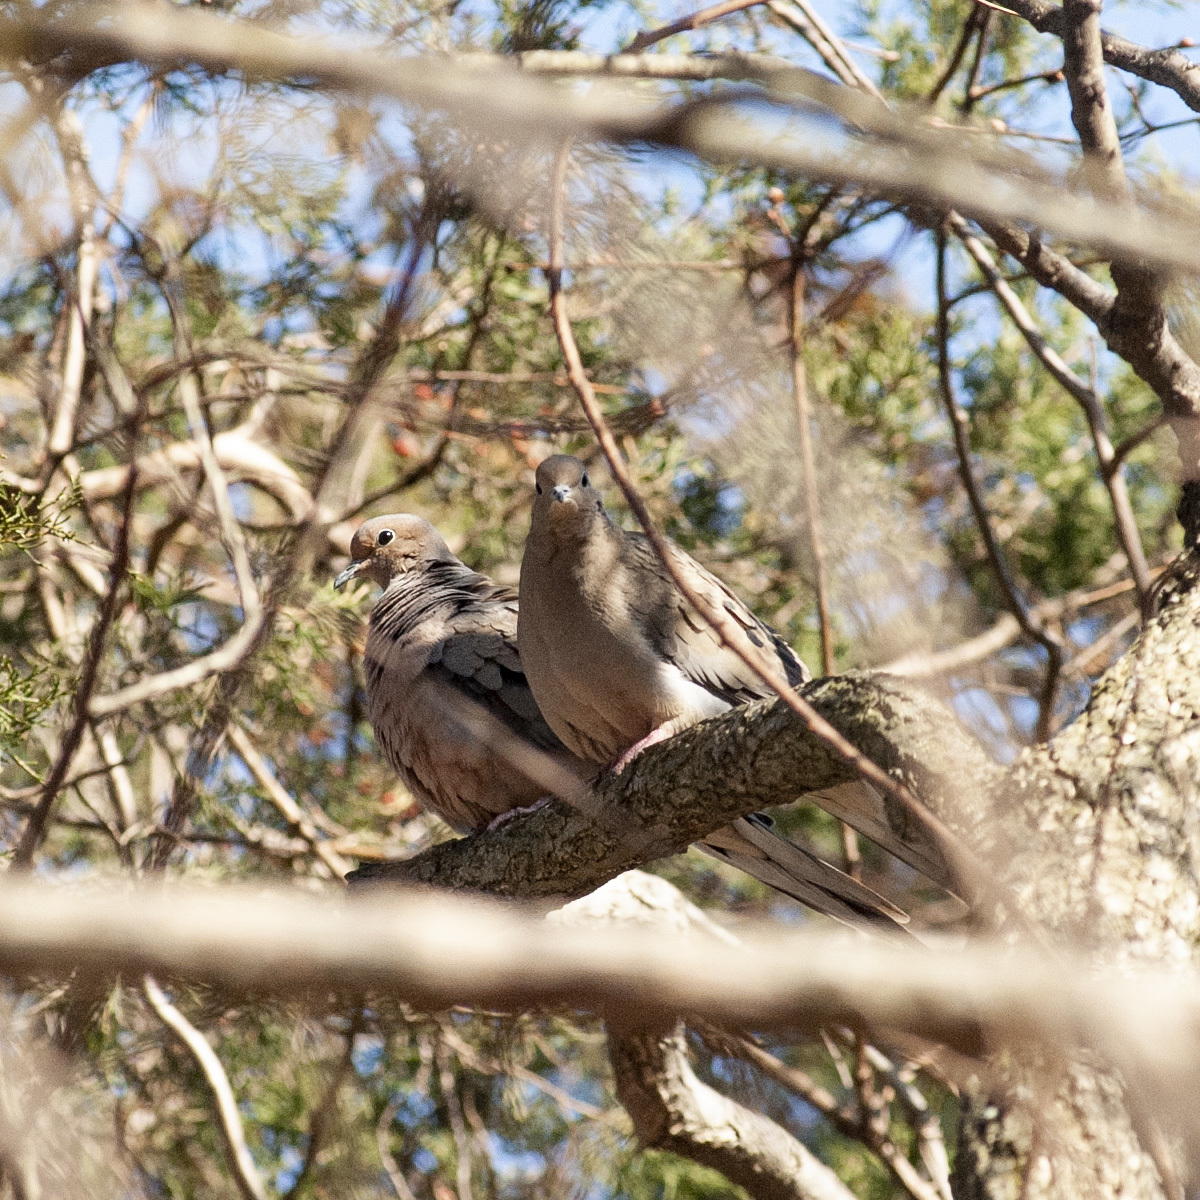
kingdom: Animalia
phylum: Chordata
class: Aves
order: Columbiformes
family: Columbidae
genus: Zenaida
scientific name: Zenaida macroura
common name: Mourning dove
